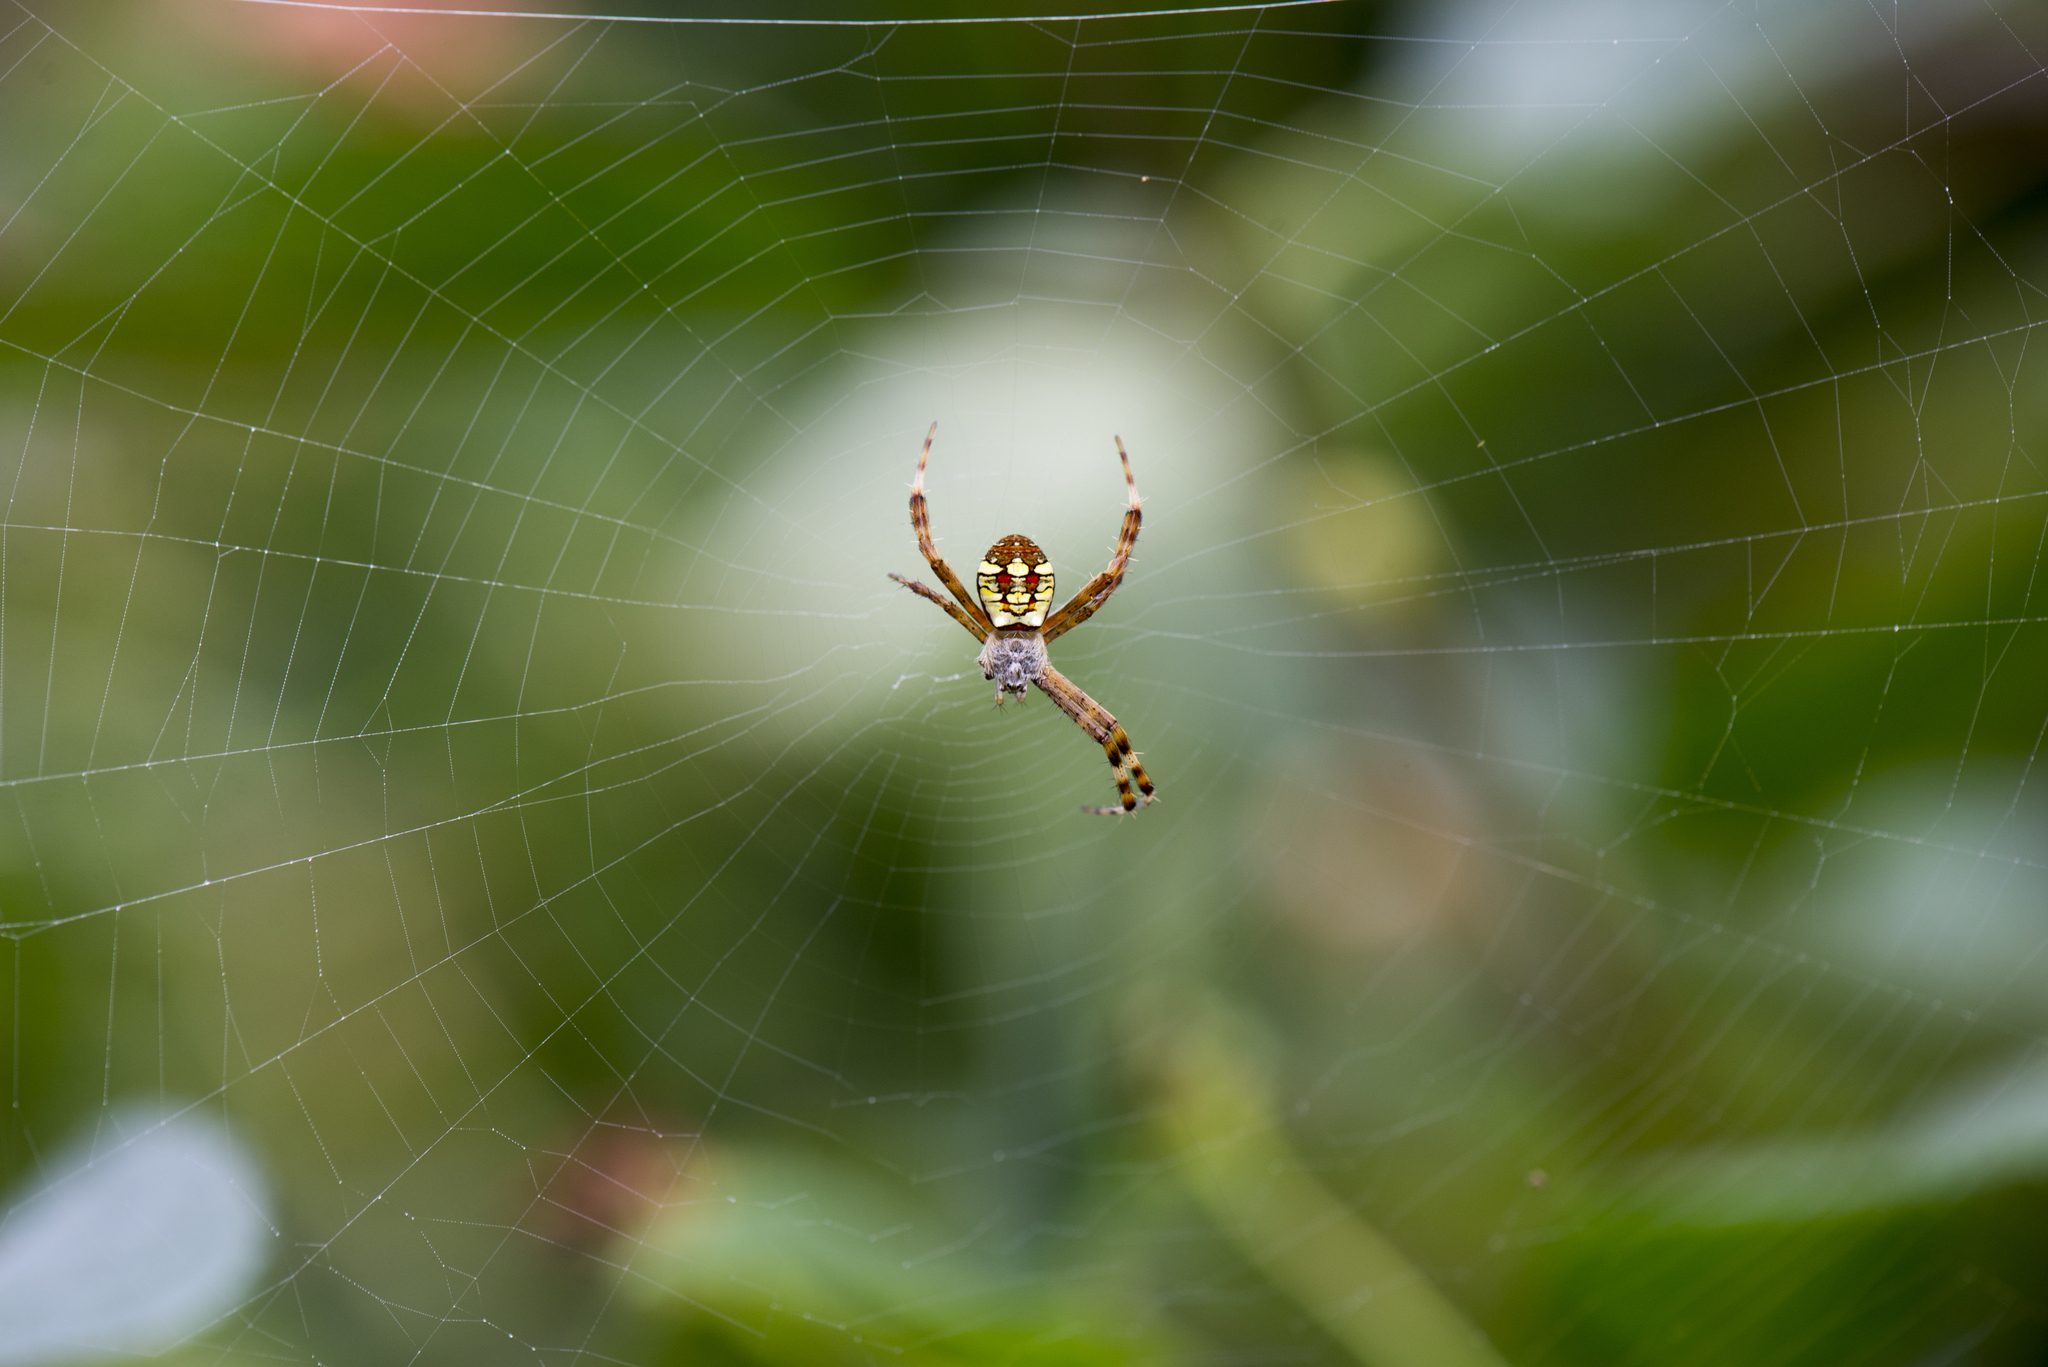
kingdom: Animalia
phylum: Arthropoda
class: Arachnida
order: Araneae
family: Araneidae
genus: Argiope
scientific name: Argiope minuta
